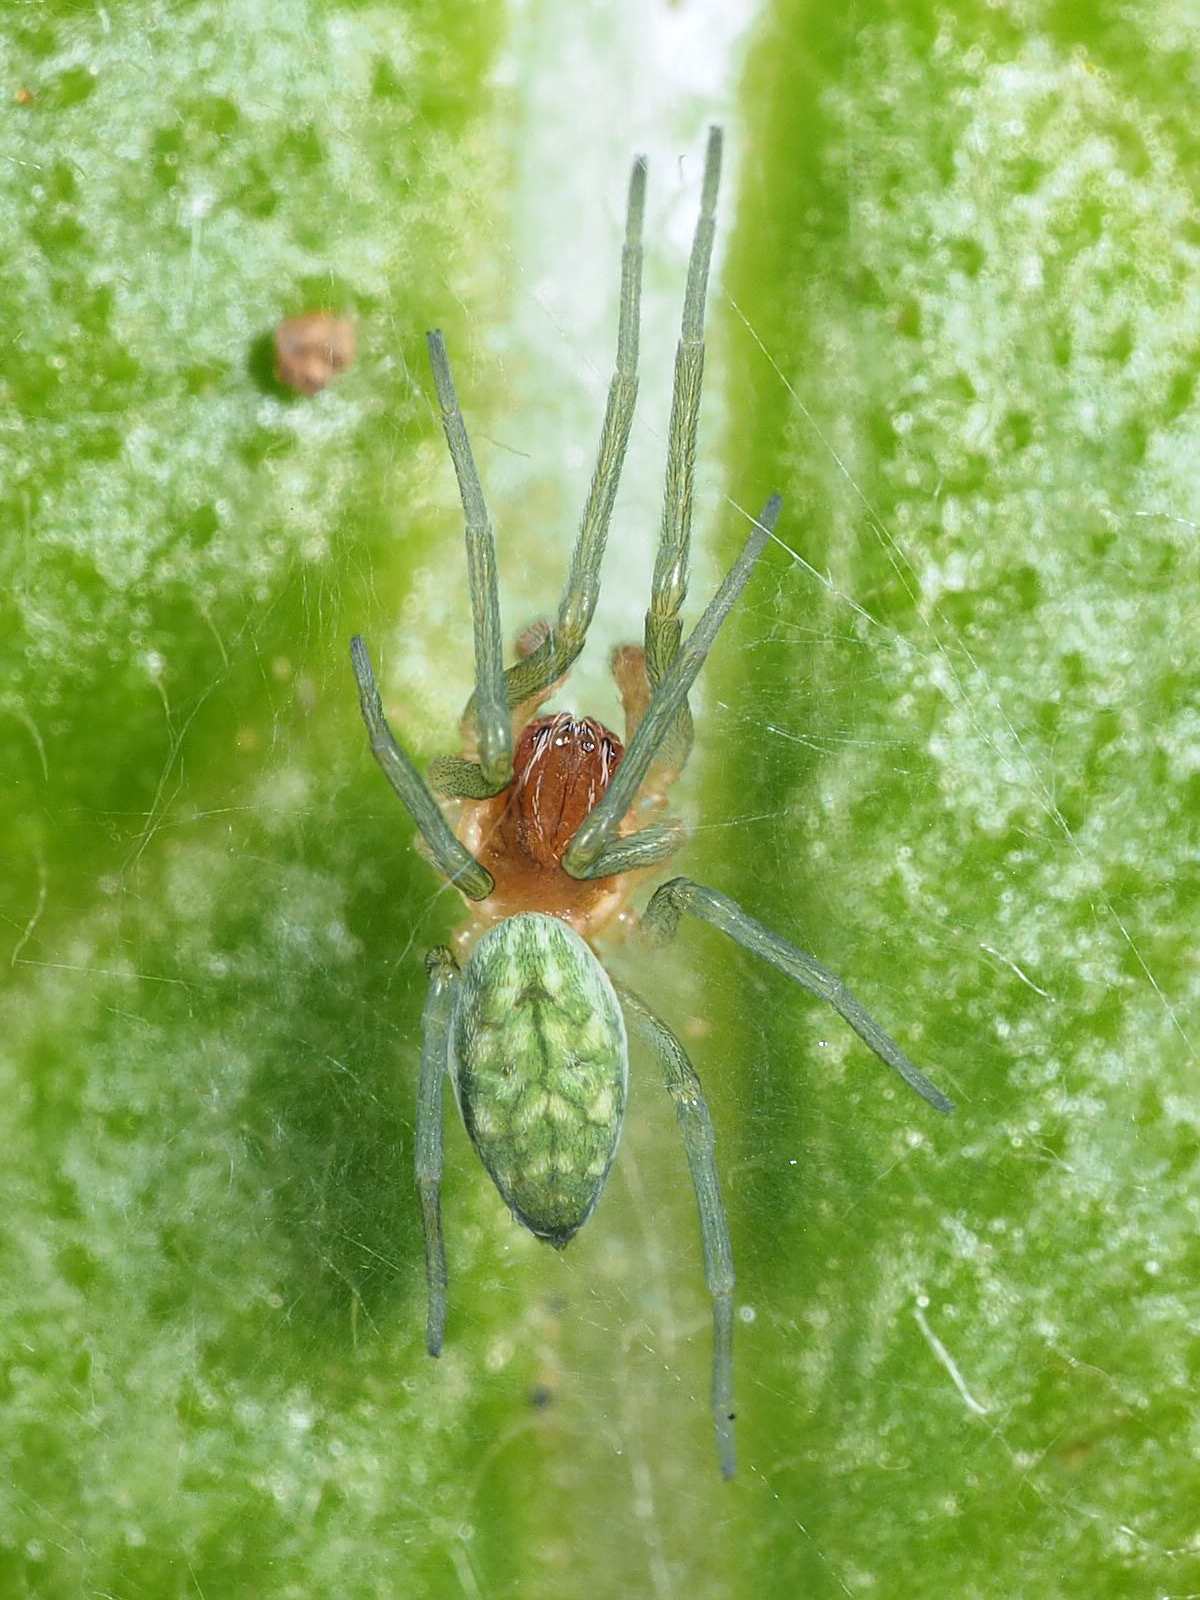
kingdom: Animalia
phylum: Arthropoda
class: Arachnida
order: Araneae
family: Dictynidae
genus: Nigma
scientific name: Nigma walckenaeri
